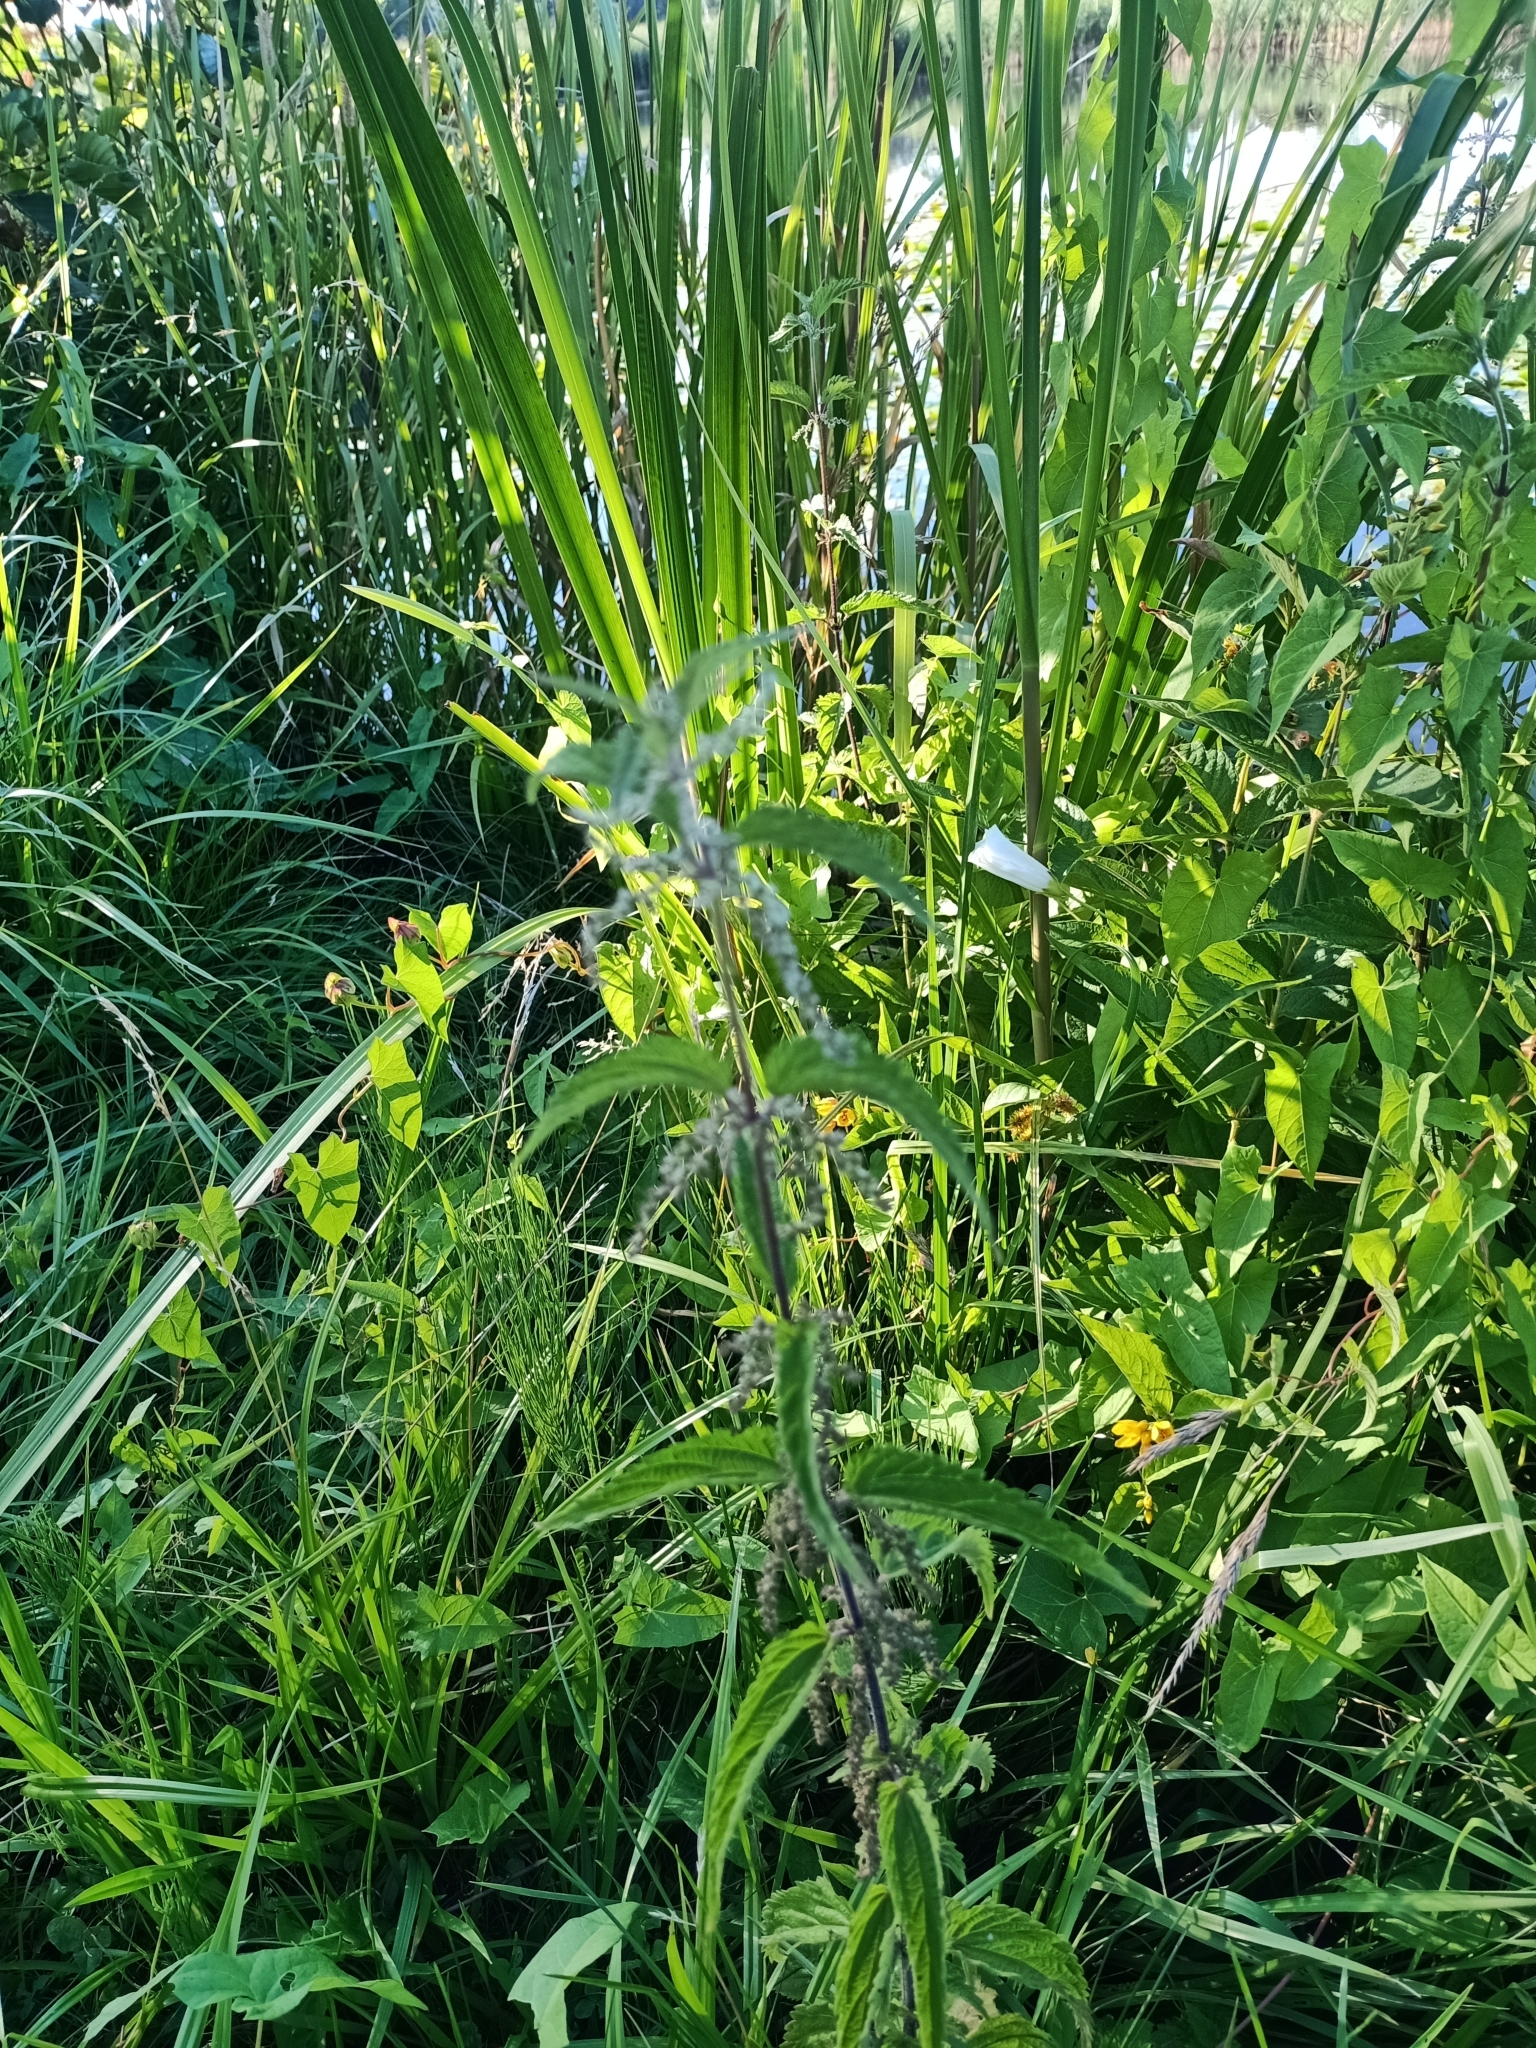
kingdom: Plantae
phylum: Tracheophyta
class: Magnoliopsida
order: Rosales
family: Urticaceae
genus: Urtica
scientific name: Urtica dioica
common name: Common nettle
